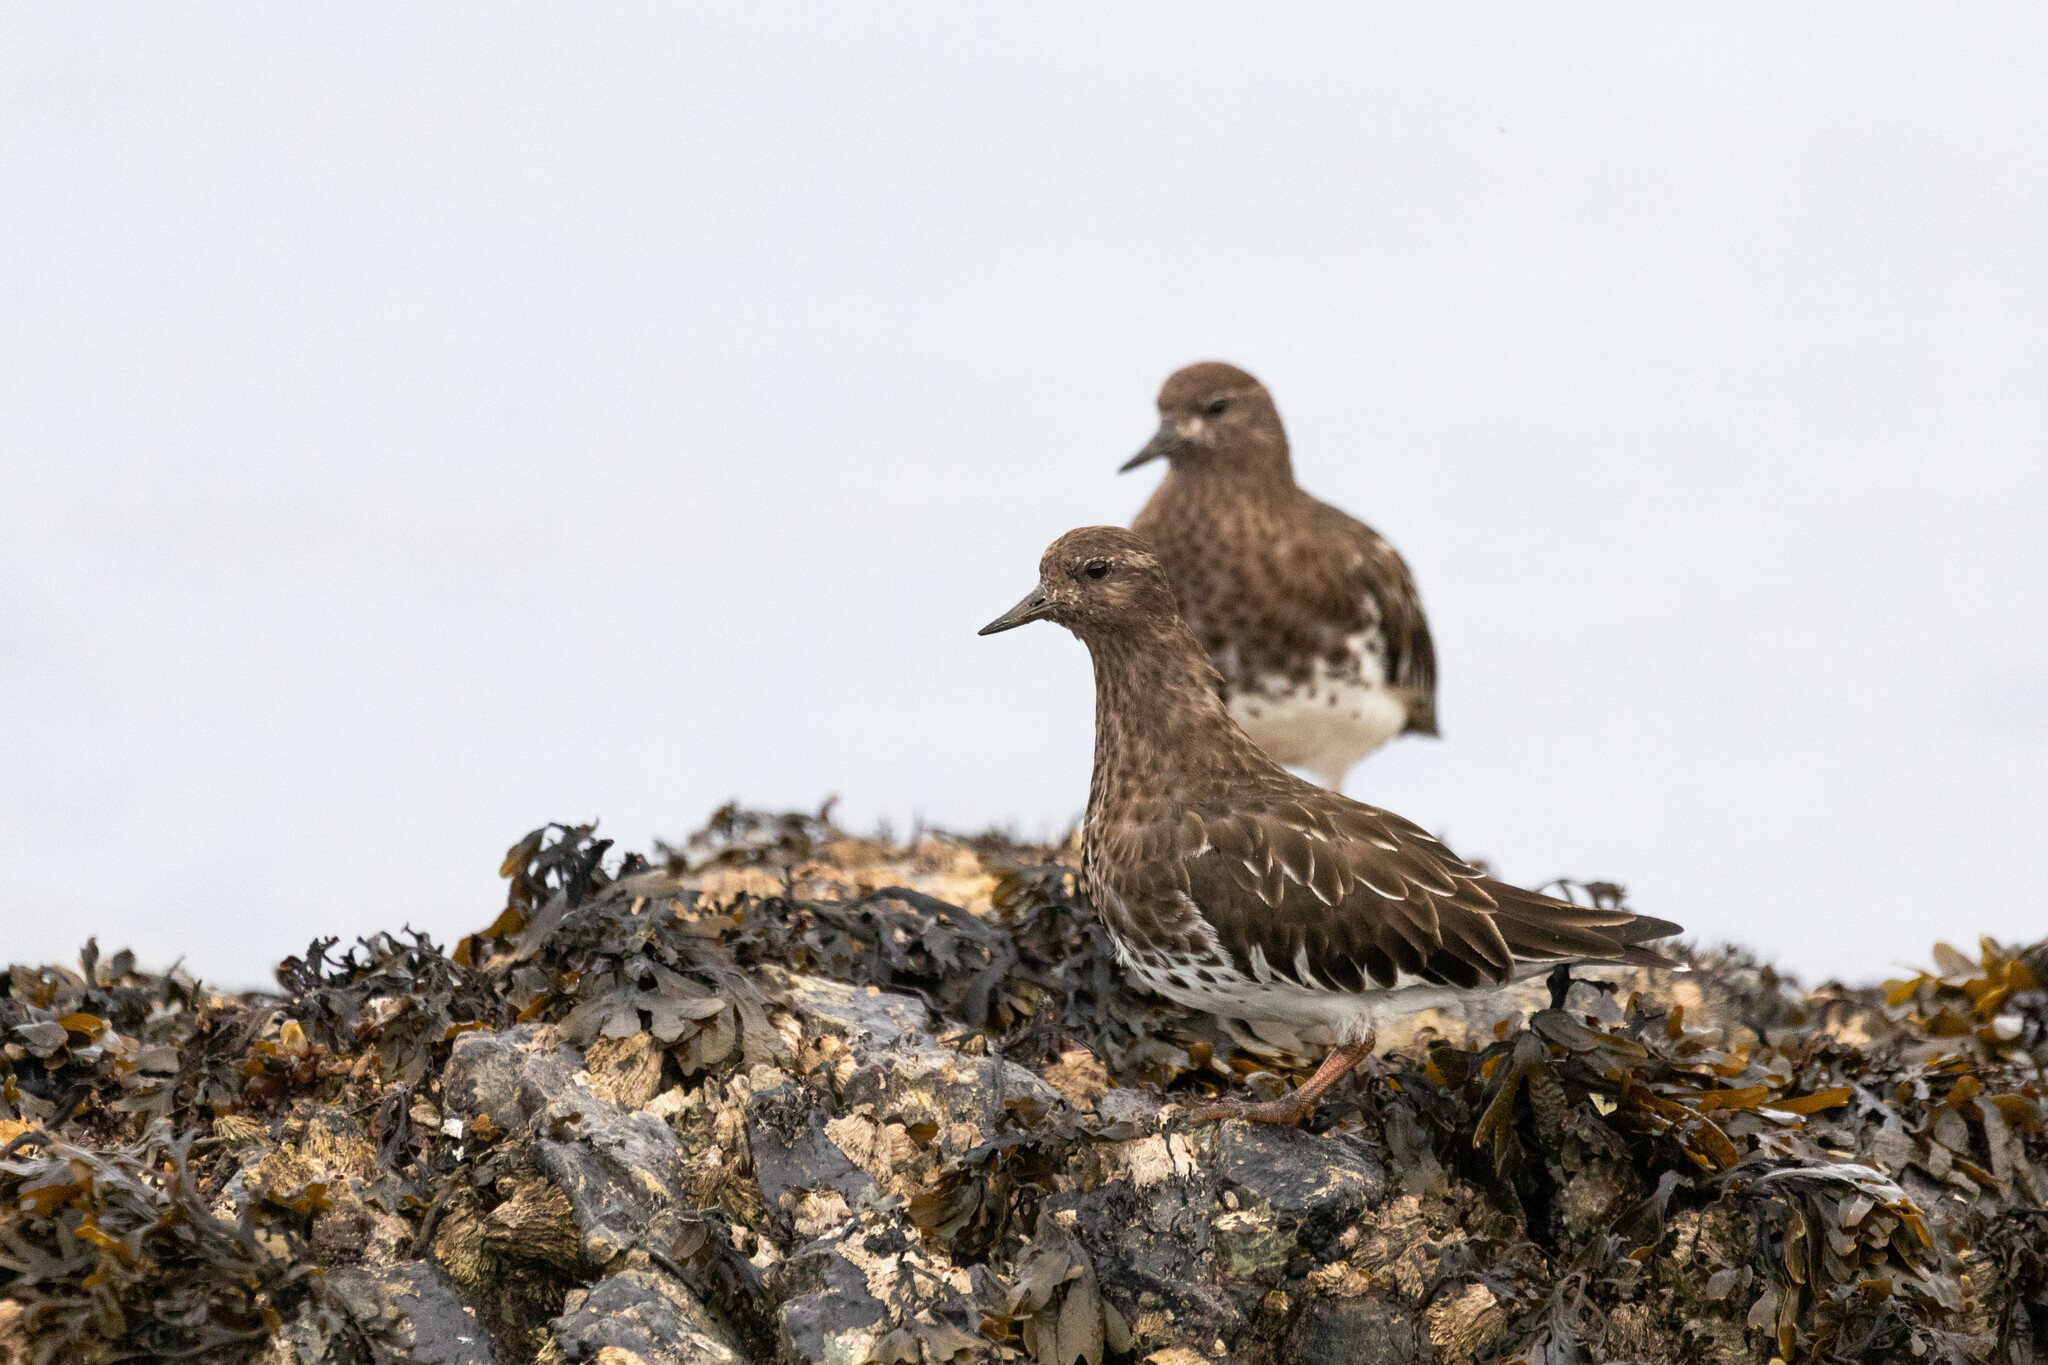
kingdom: Animalia
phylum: Chordata
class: Aves
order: Charadriiformes
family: Scolopacidae
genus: Arenaria
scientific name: Arenaria melanocephala
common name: Black turnstone
